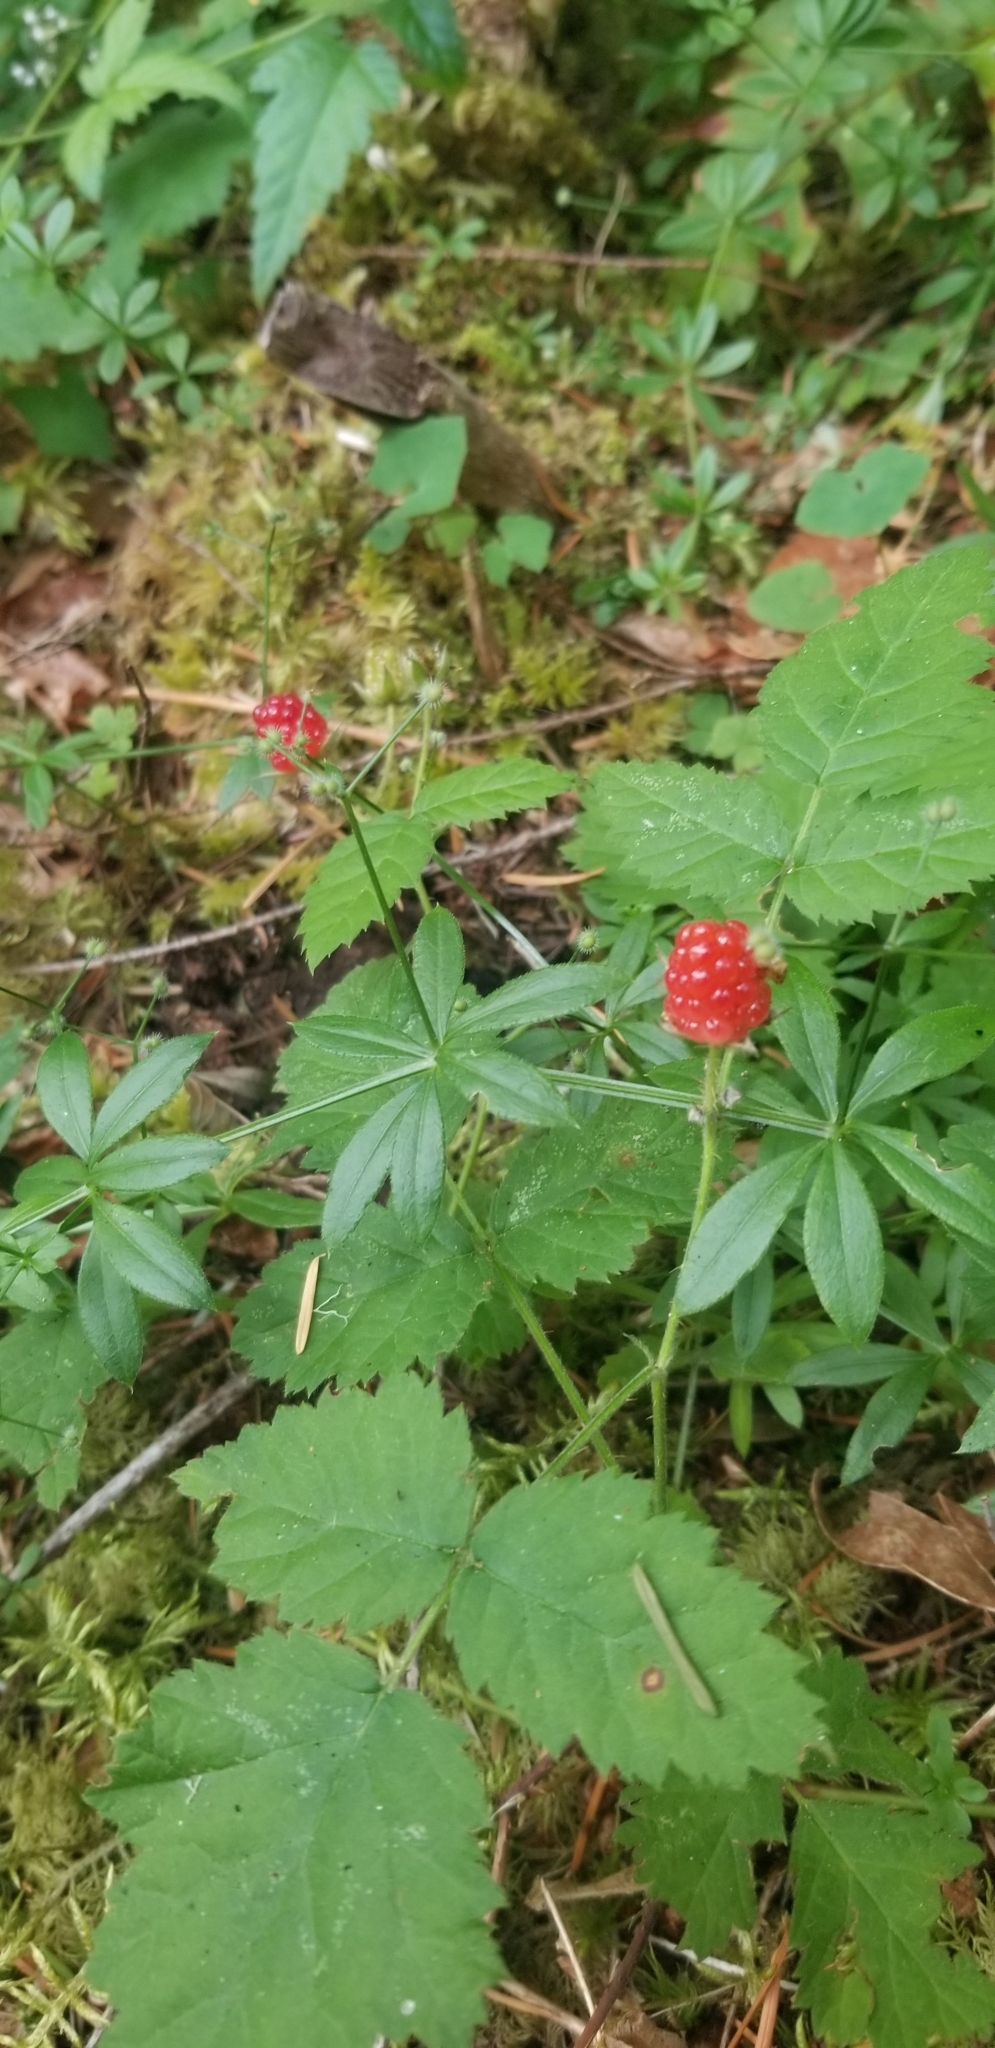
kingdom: Plantae
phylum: Tracheophyta
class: Magnoliopsida
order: Rosales
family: Rosaceae
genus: Rubus
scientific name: Rubus ursinus
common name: Pacific blackberry
